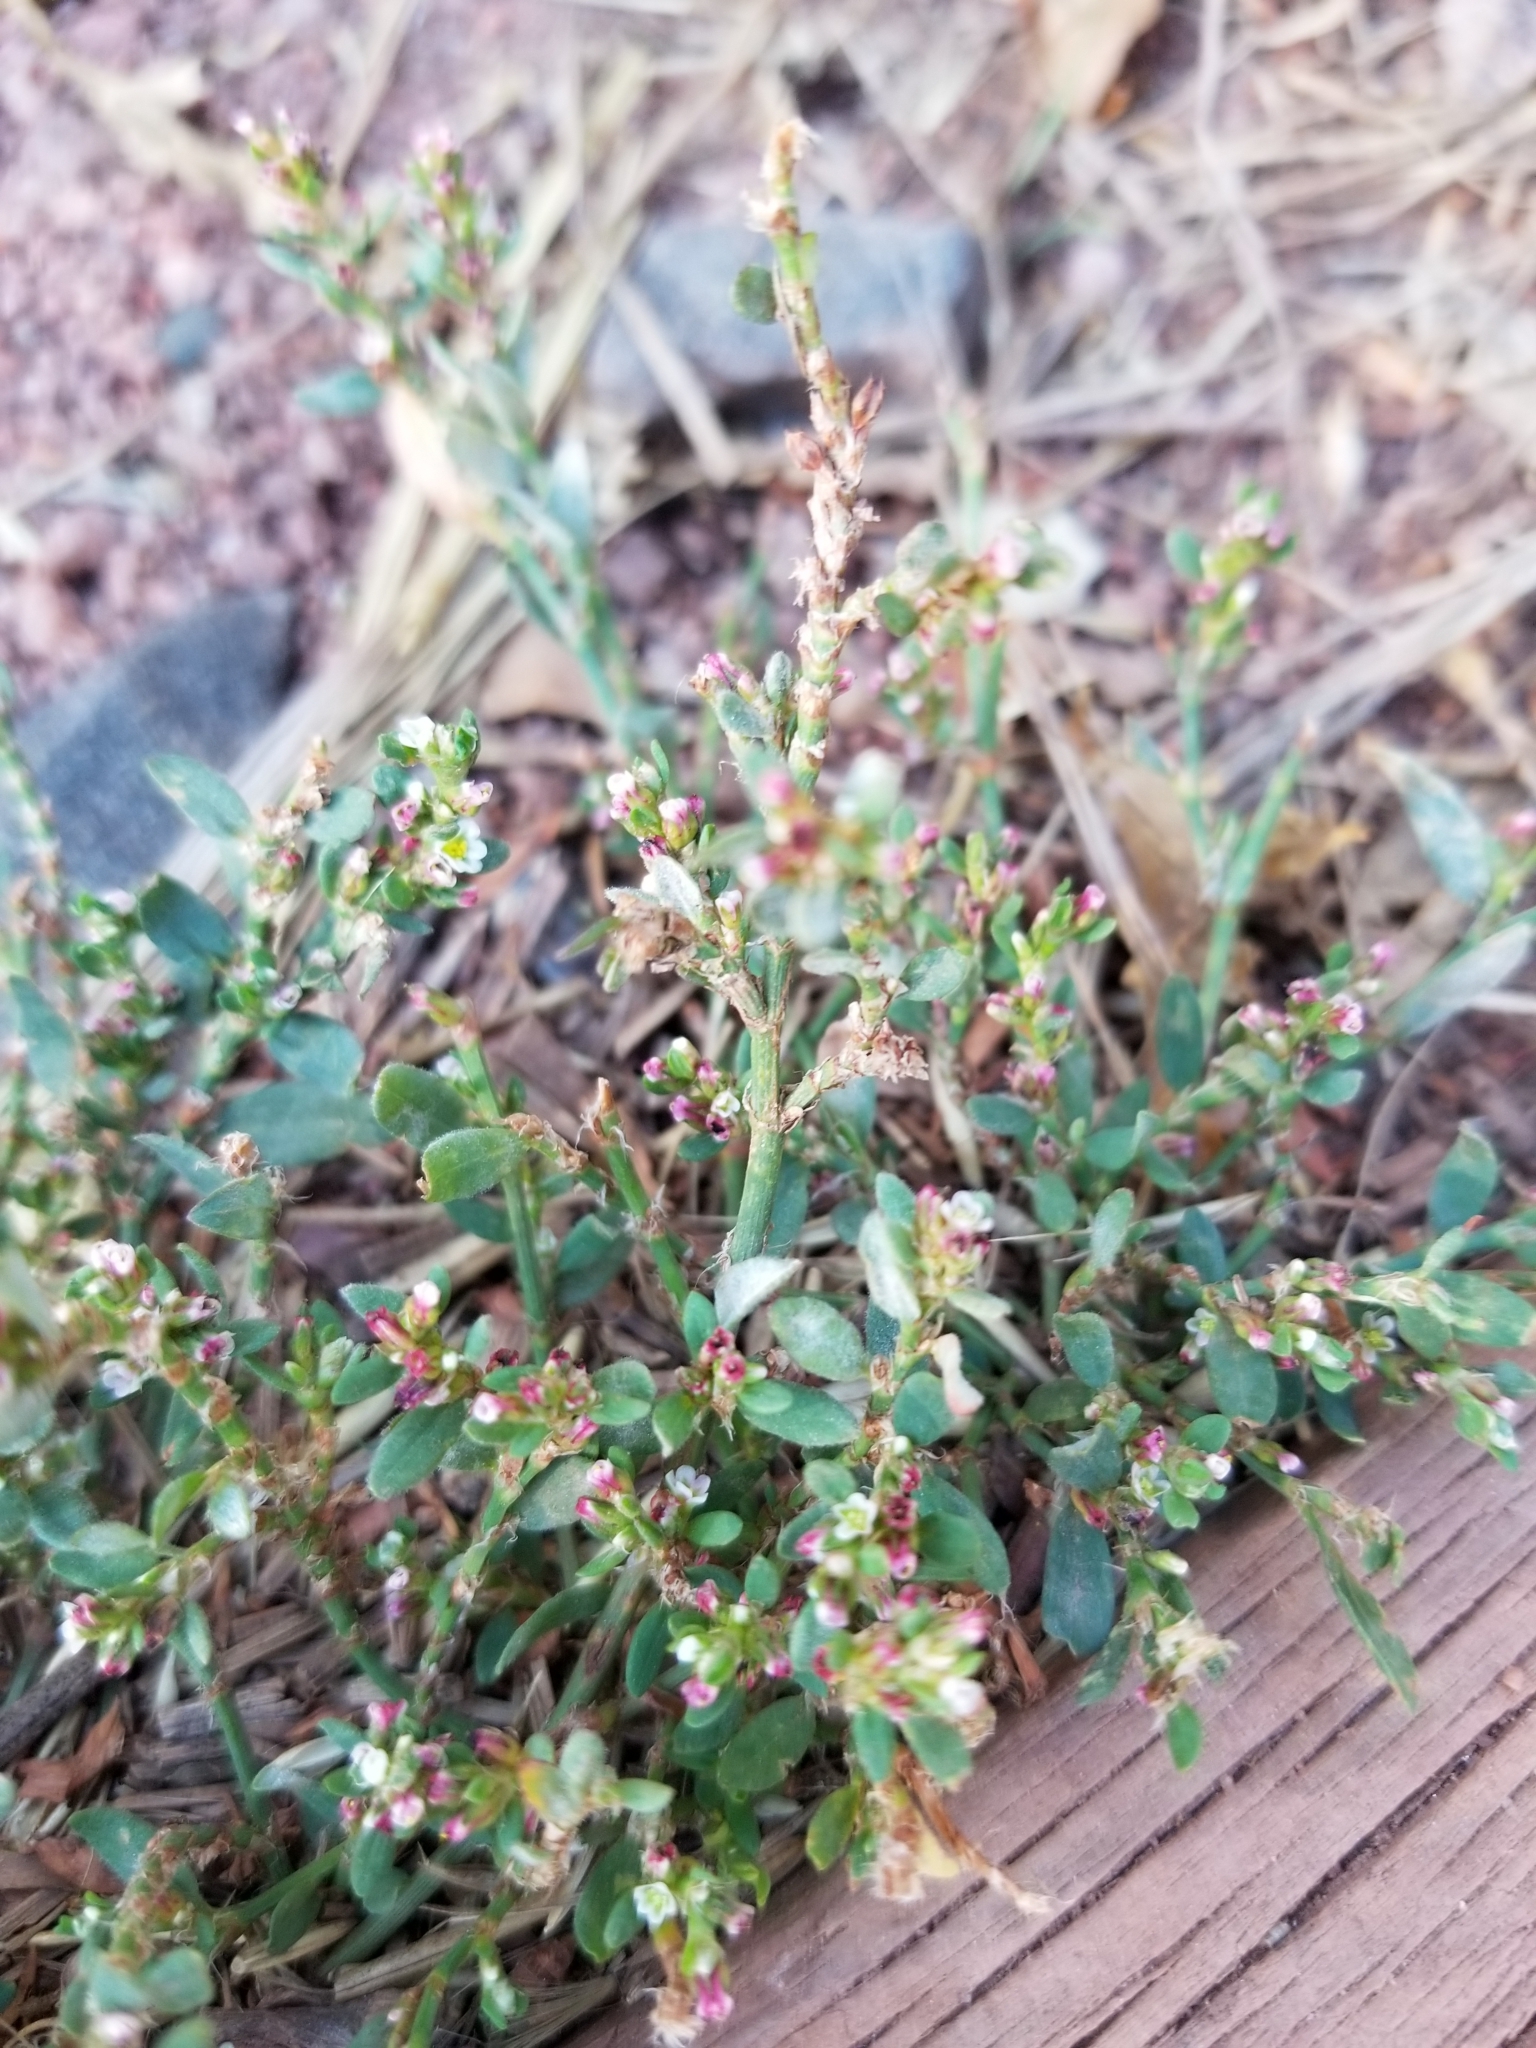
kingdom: Plantae
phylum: Tracheophyta
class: Magnoliopsida
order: Caryophyllales
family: Polygonaceae
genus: Polygonum
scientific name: Polygonum aviculare
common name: Prostrate knotweed
